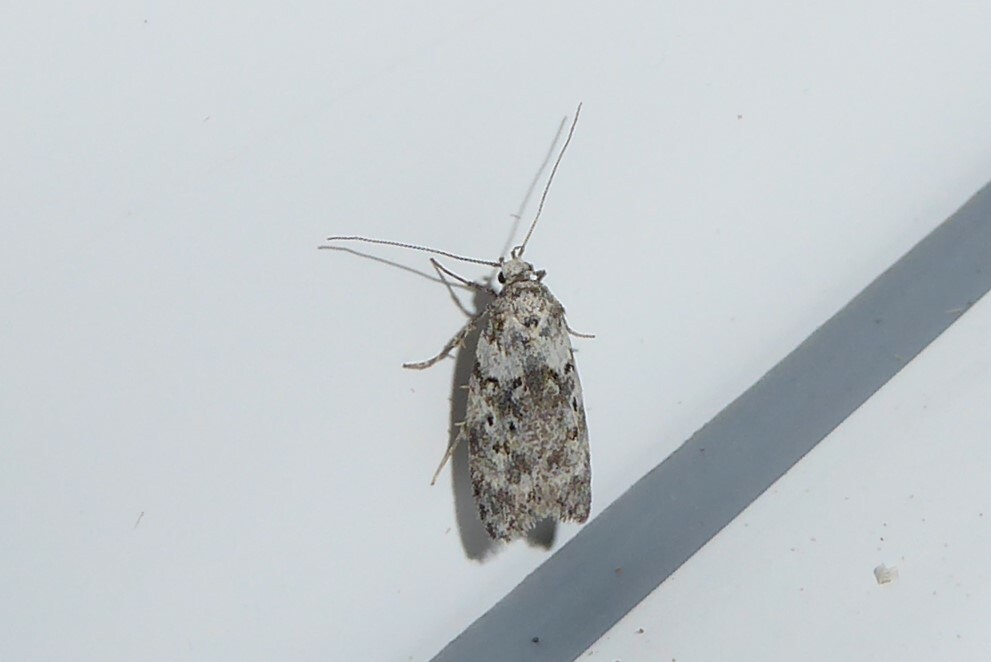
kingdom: Animalia
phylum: Arthropoda
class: Insecta
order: Lepidoptera
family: Oecophoridae
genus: Izatha
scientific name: Izatha convulsella
